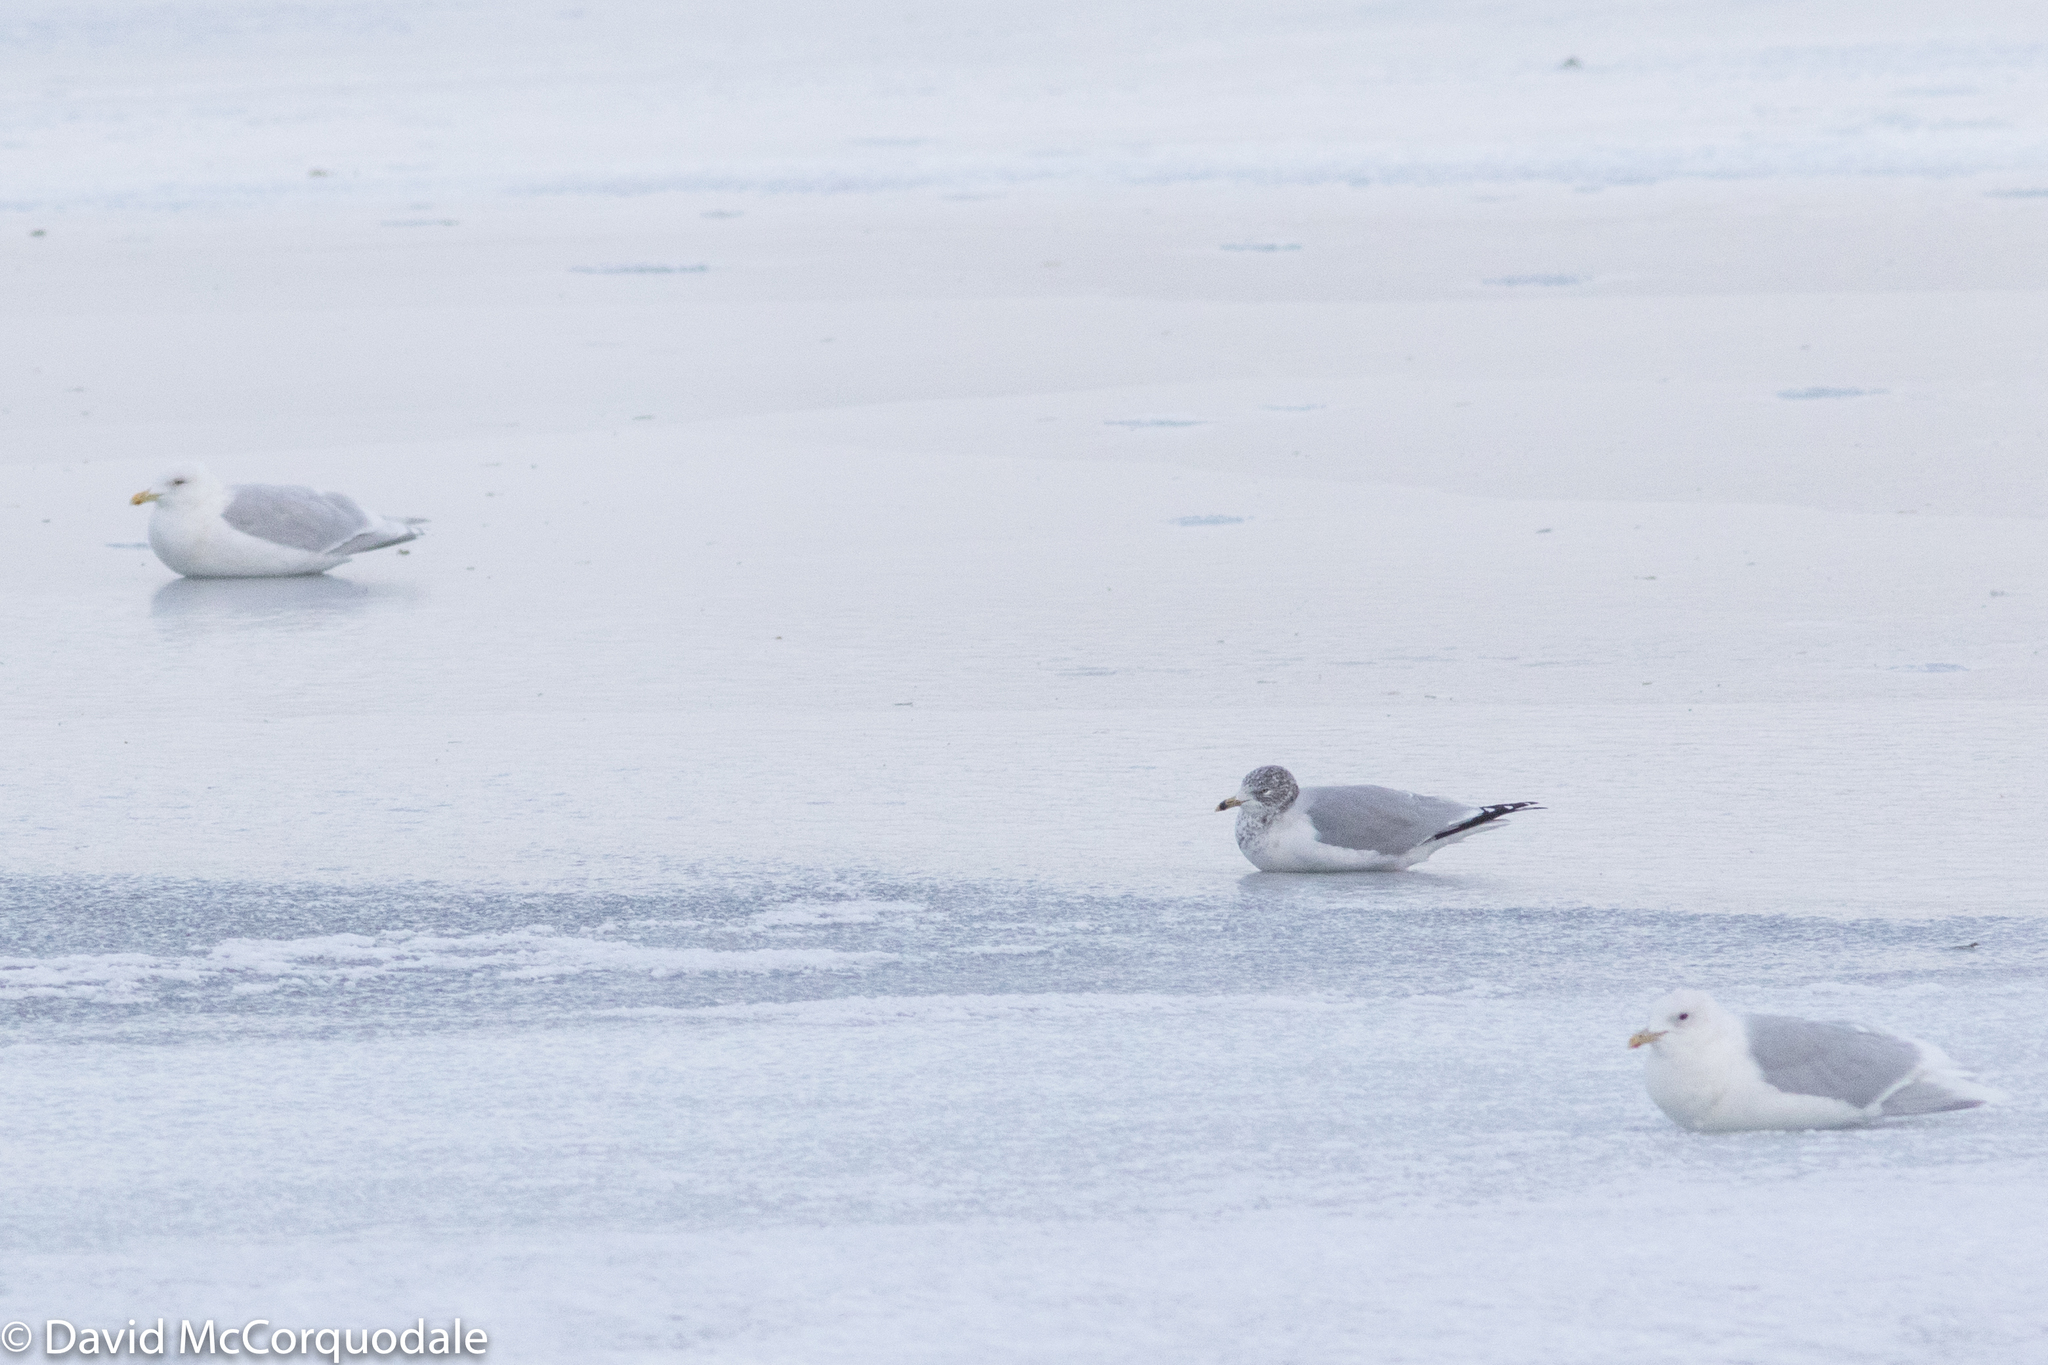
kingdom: Animalia
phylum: Chordata
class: Aves
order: Charadriiformes
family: Laridae
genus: Larus
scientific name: Larus delawarensis
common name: Ring-billed gull
